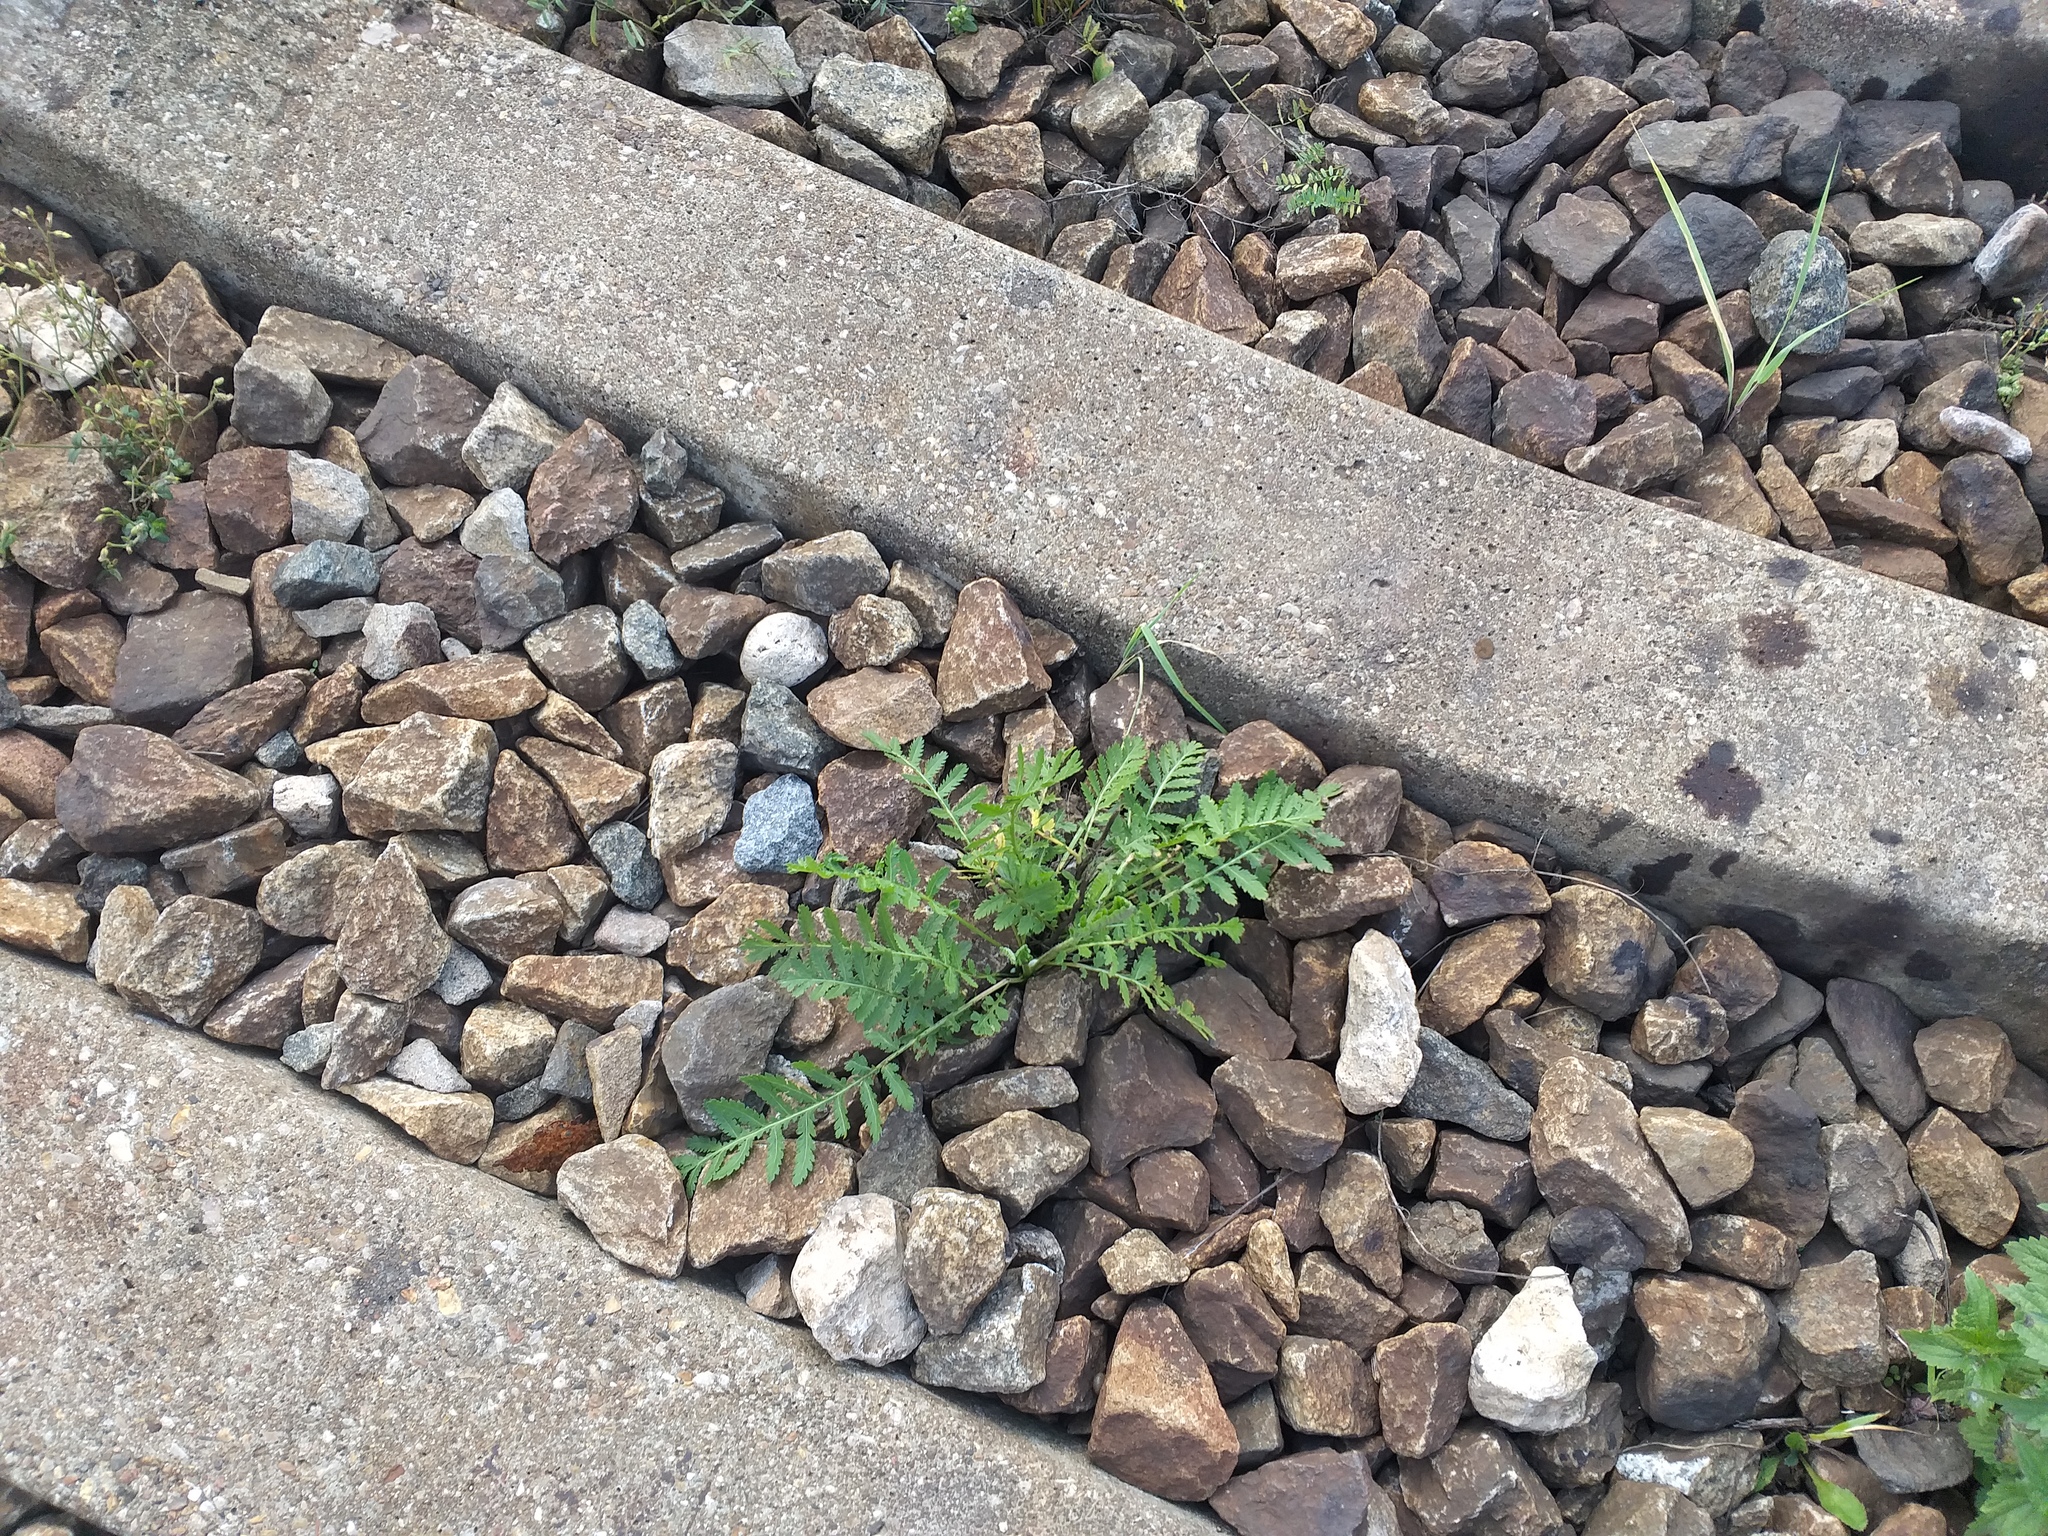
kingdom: Plantae
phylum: Tracheophyta
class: Magnoliopsida
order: Asterales
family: Asteraceae
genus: Tanacetum
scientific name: Tanacetum vulgare
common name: Common tansy
